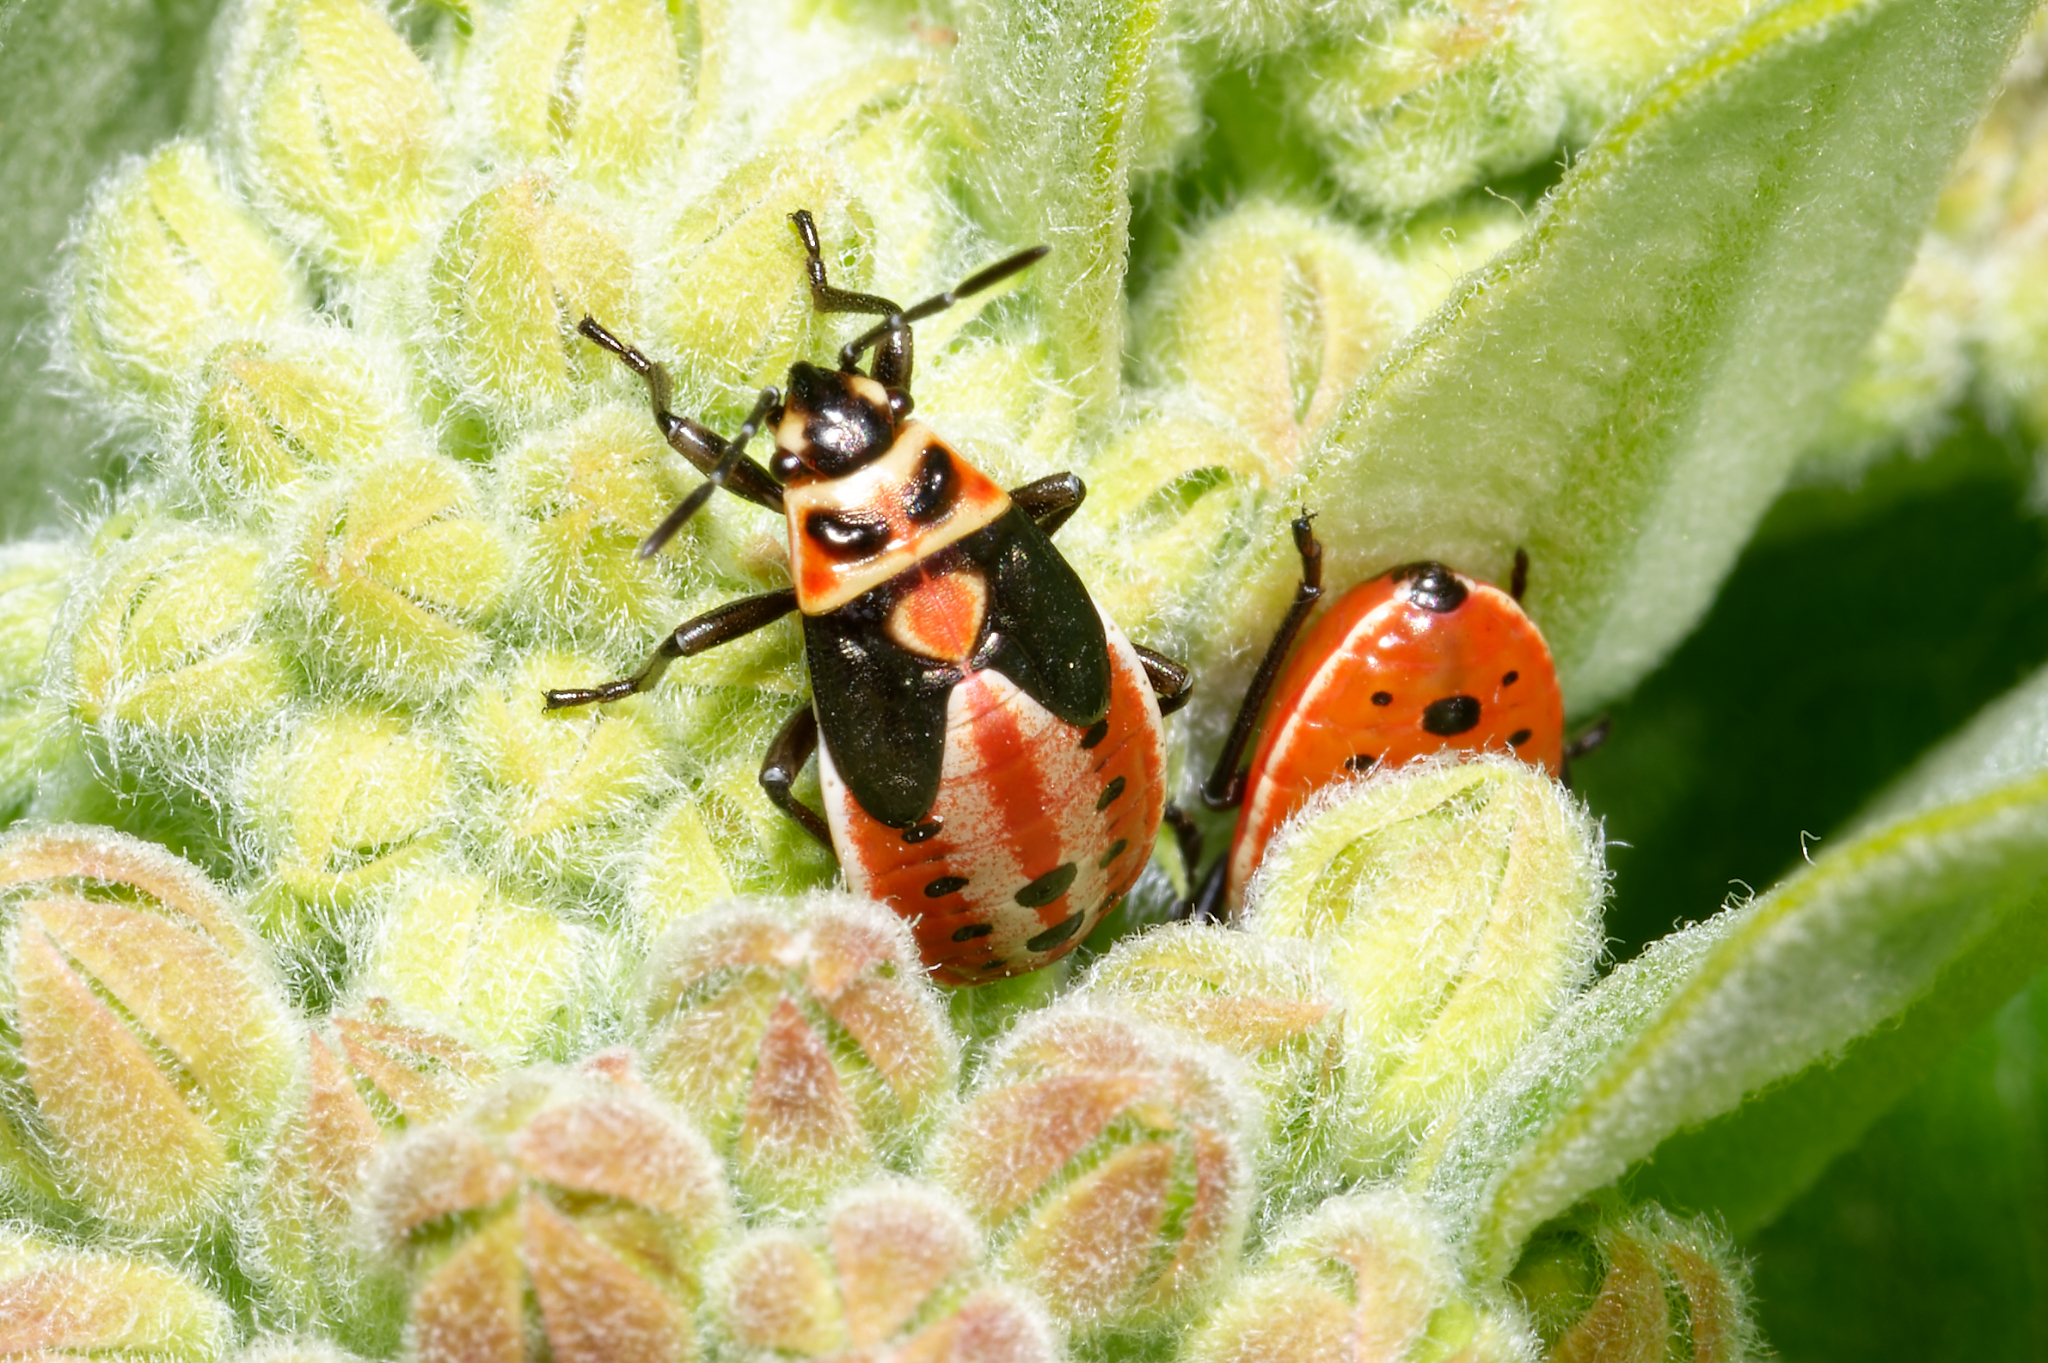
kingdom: Animalia
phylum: Arthropoda
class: Insecta
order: Hemiptera
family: Lygaeidae
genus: Lygaeus
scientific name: Lygaeus kalmii
